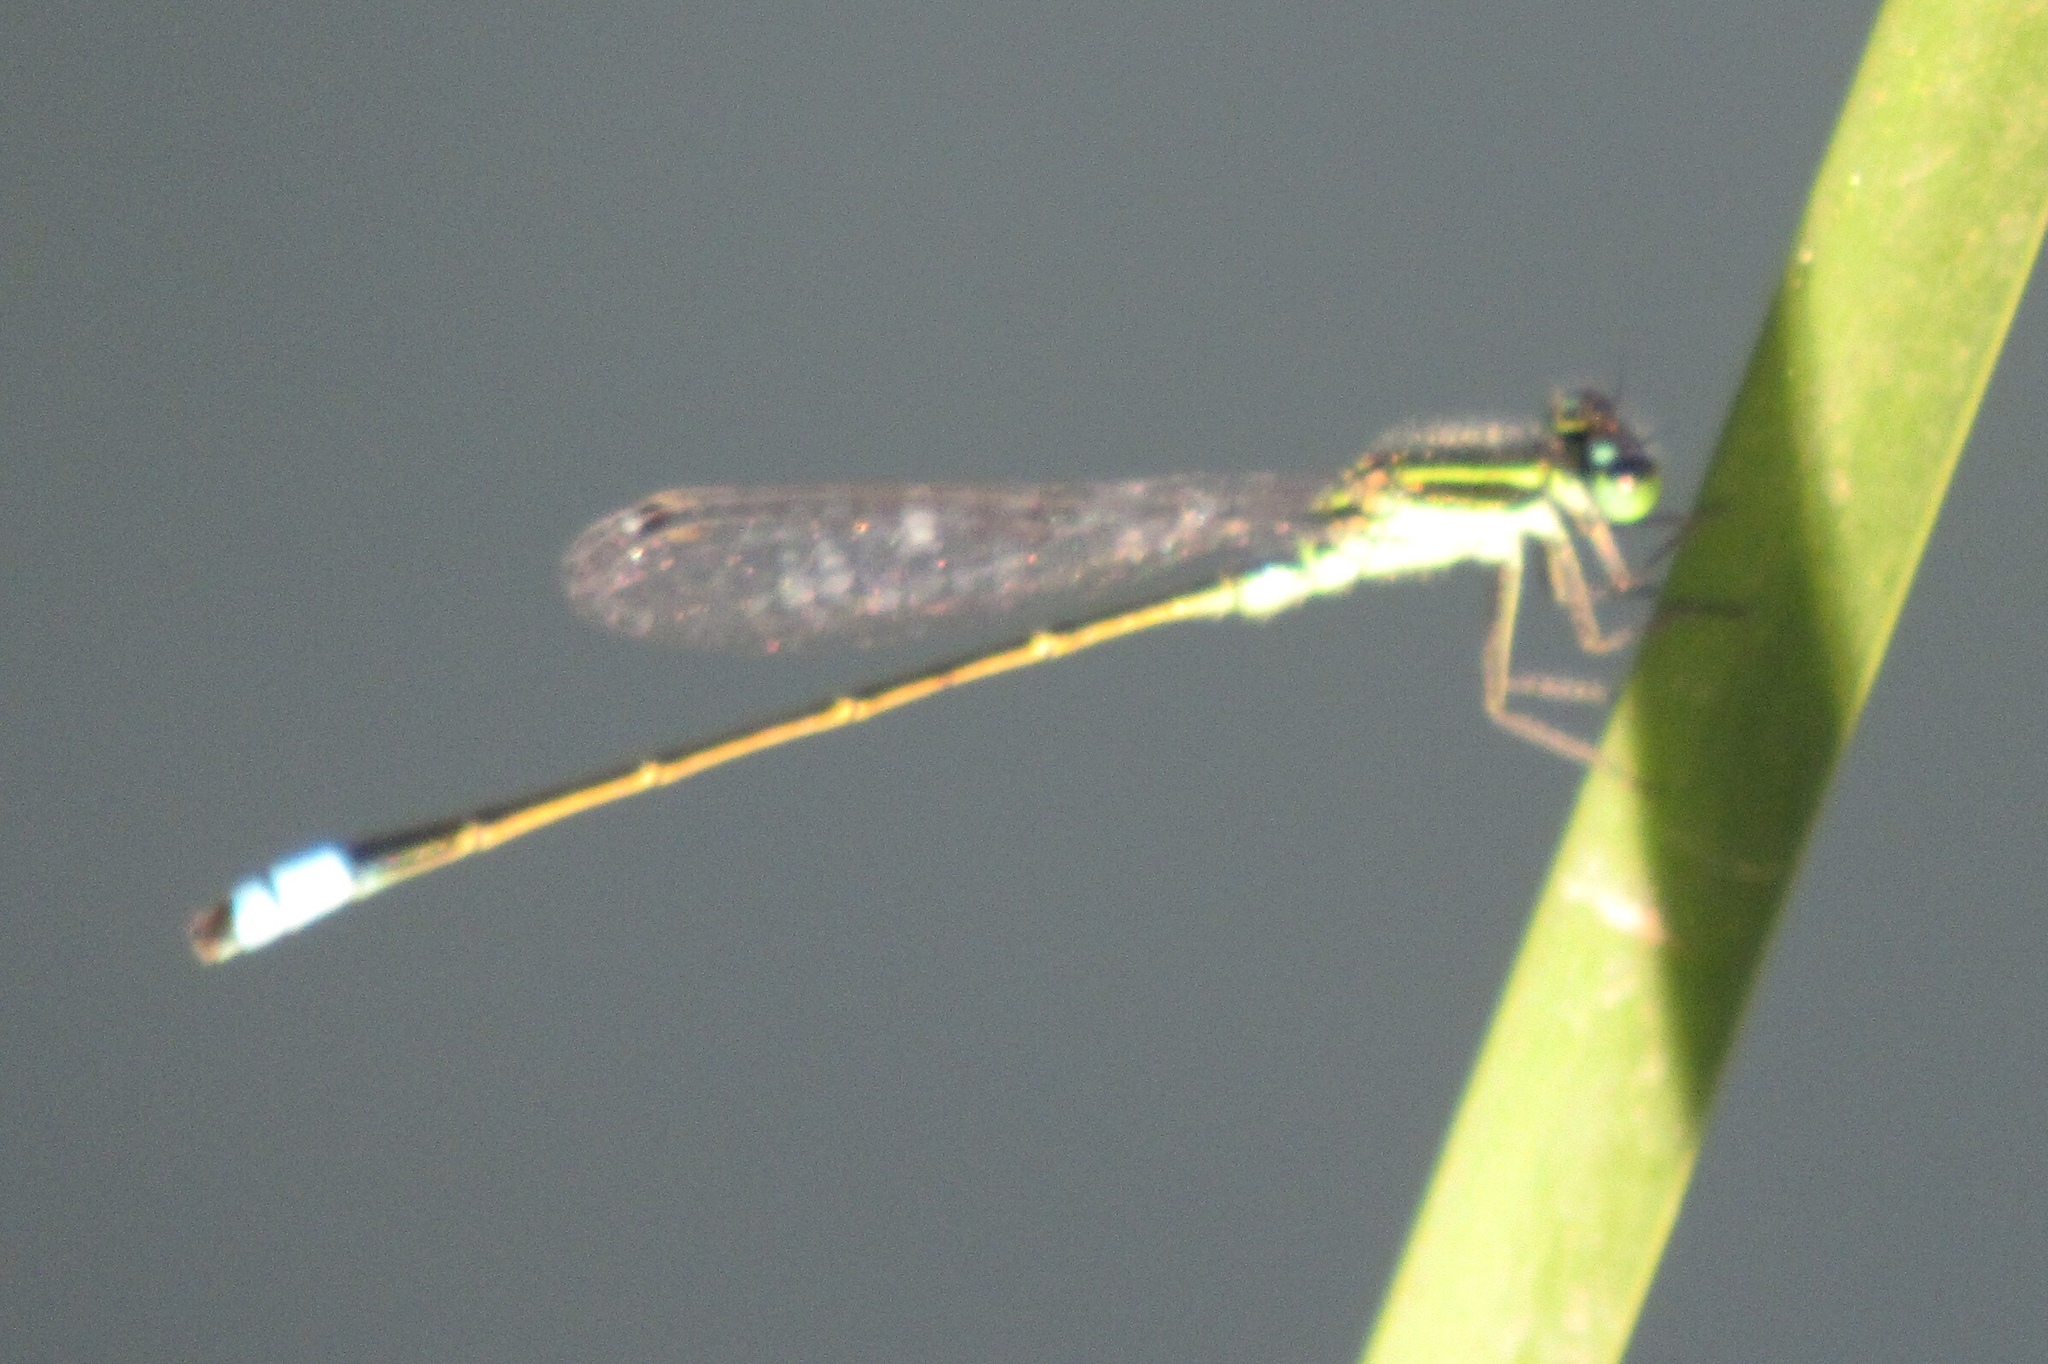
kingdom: Animalia
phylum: Arthropoda
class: Insecta
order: Odonata
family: Coenagrionidae
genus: Ischnura
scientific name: Ischnura ramburii
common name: Rambur's forktail
